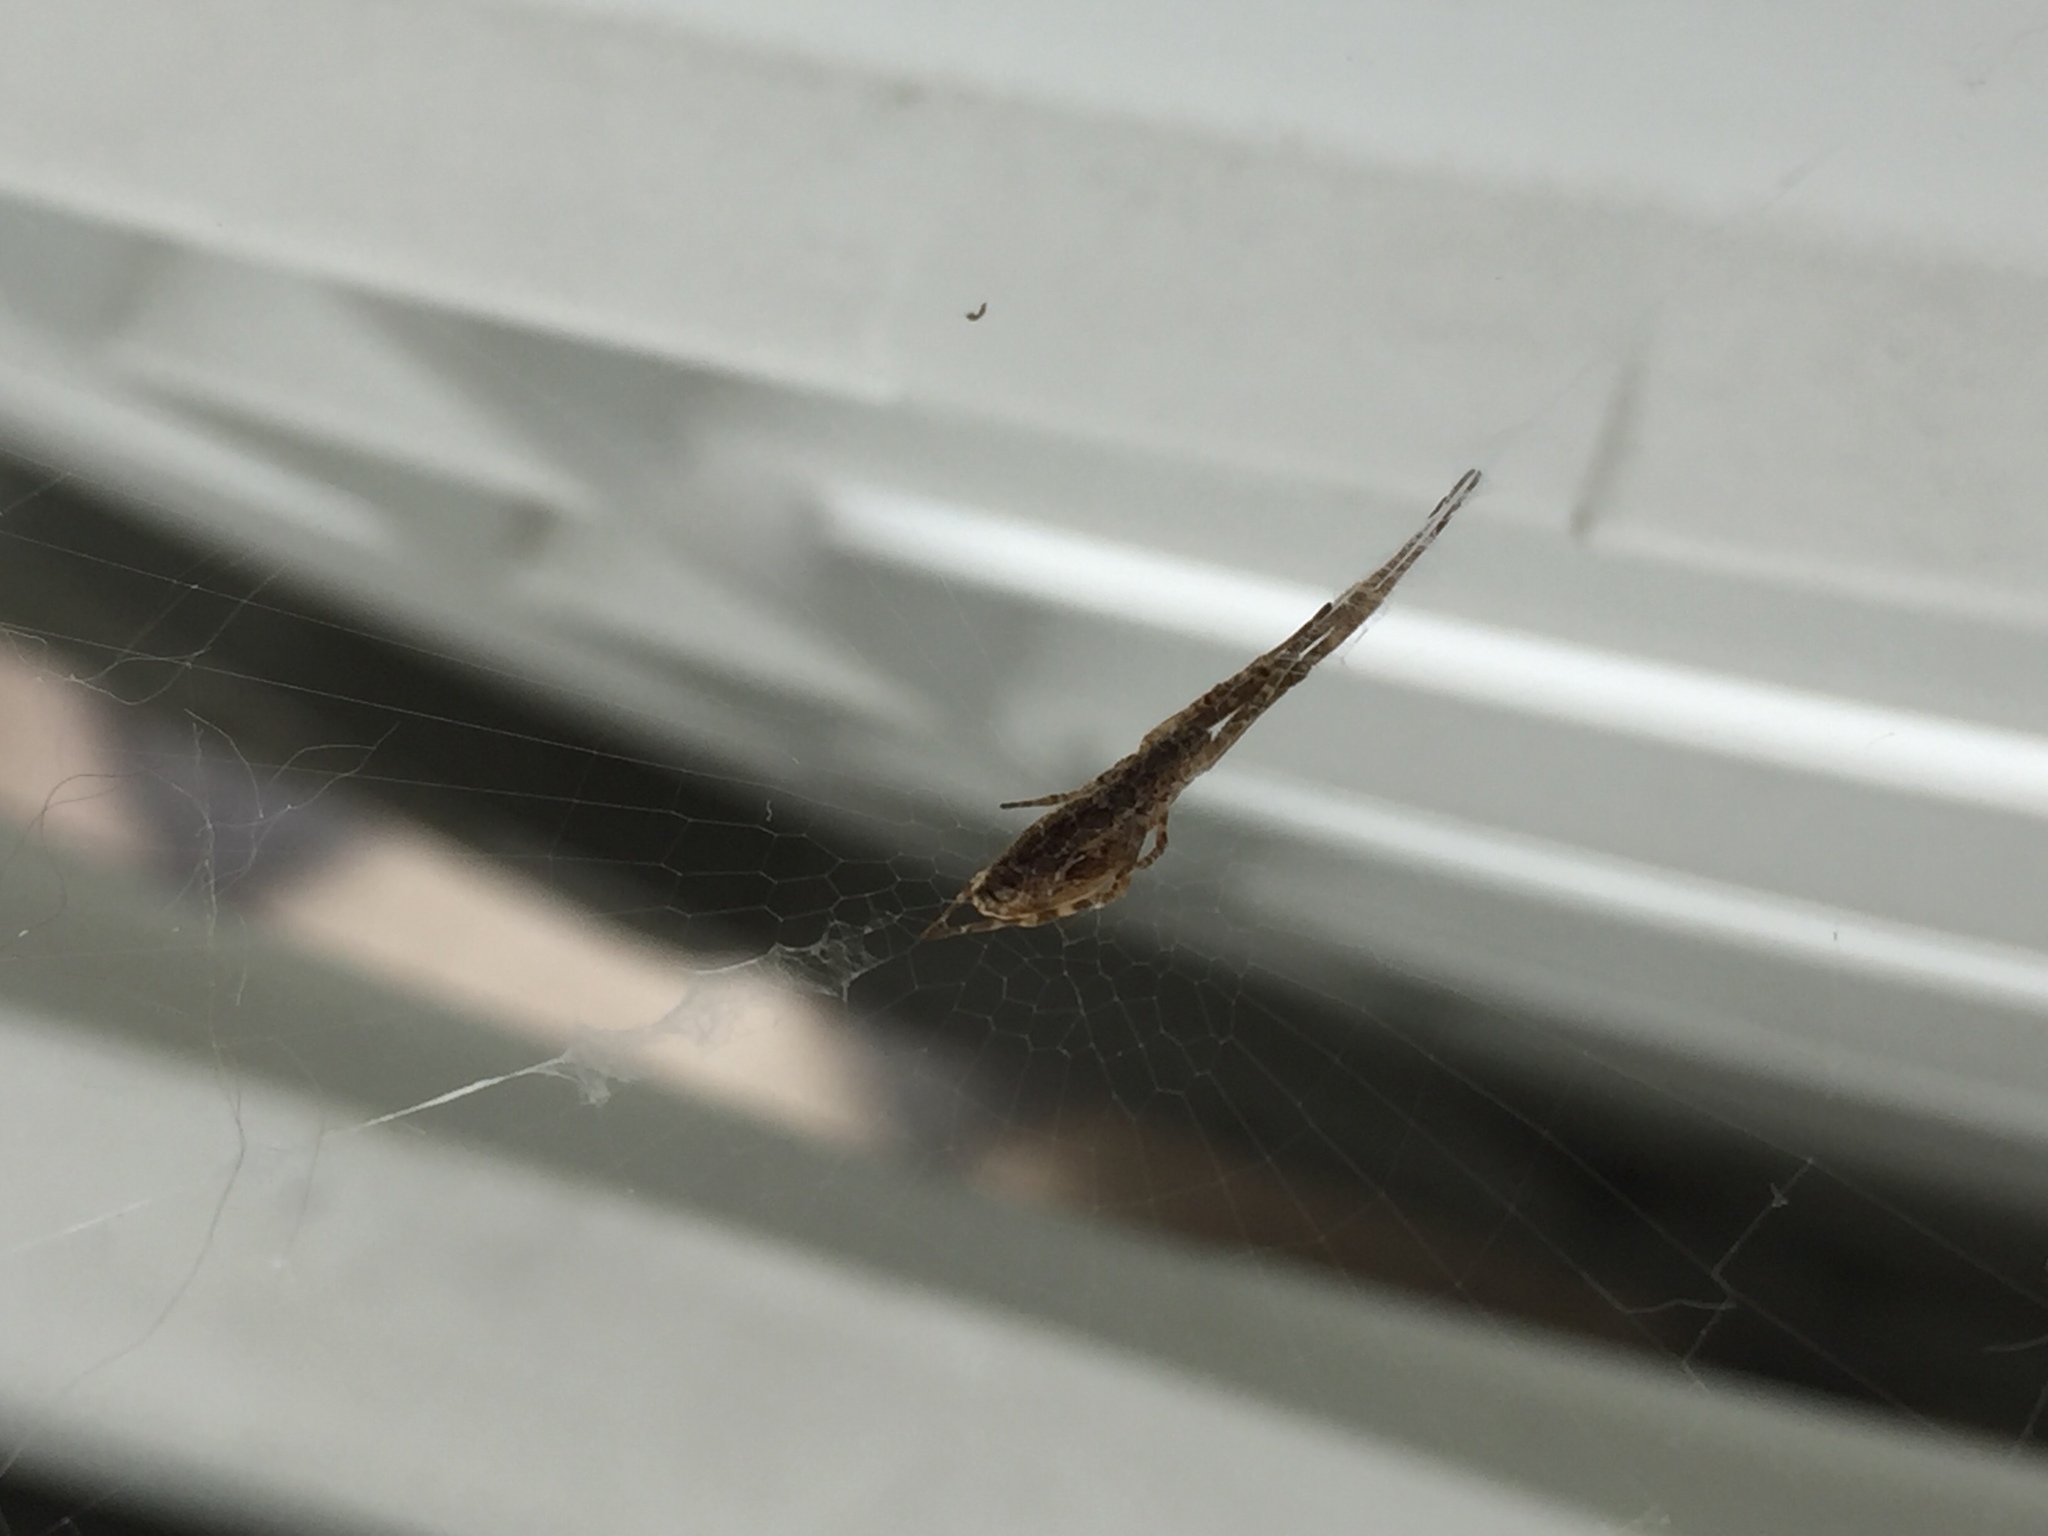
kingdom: Animalia
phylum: Arthropoda
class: Arachnida
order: Araneae
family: Uloboridae
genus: Uloborus
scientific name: Uloborus walckenaerius
